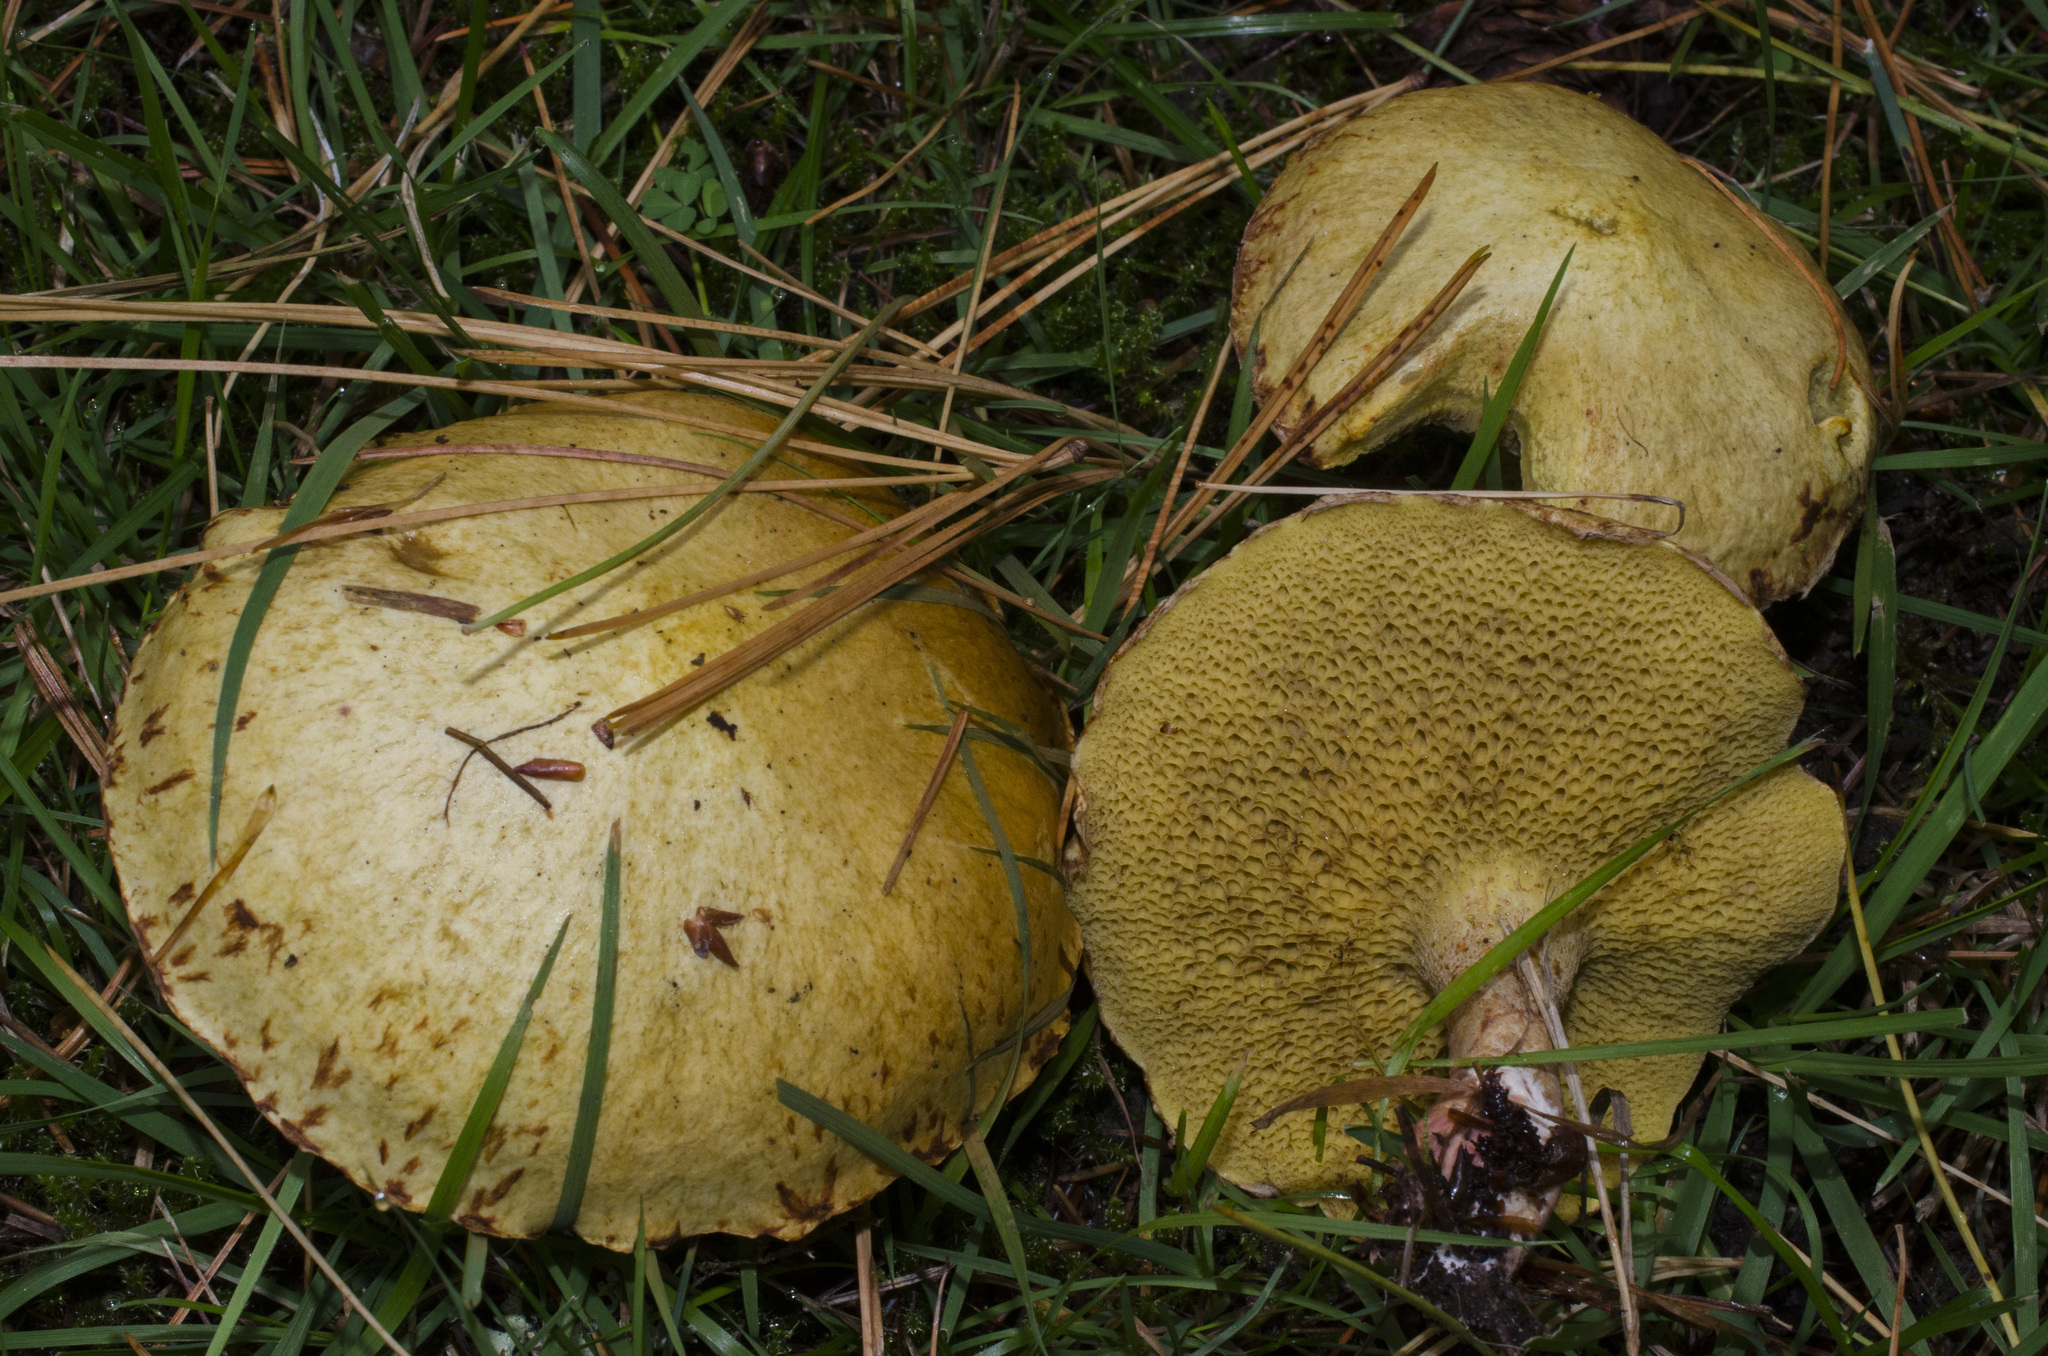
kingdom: Fungi
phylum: Basidiomycota
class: Agaricomycetes
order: Boletales
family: Suillaceae
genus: Suillus
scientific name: Suillus americanus
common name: Chicken fat mushroom
